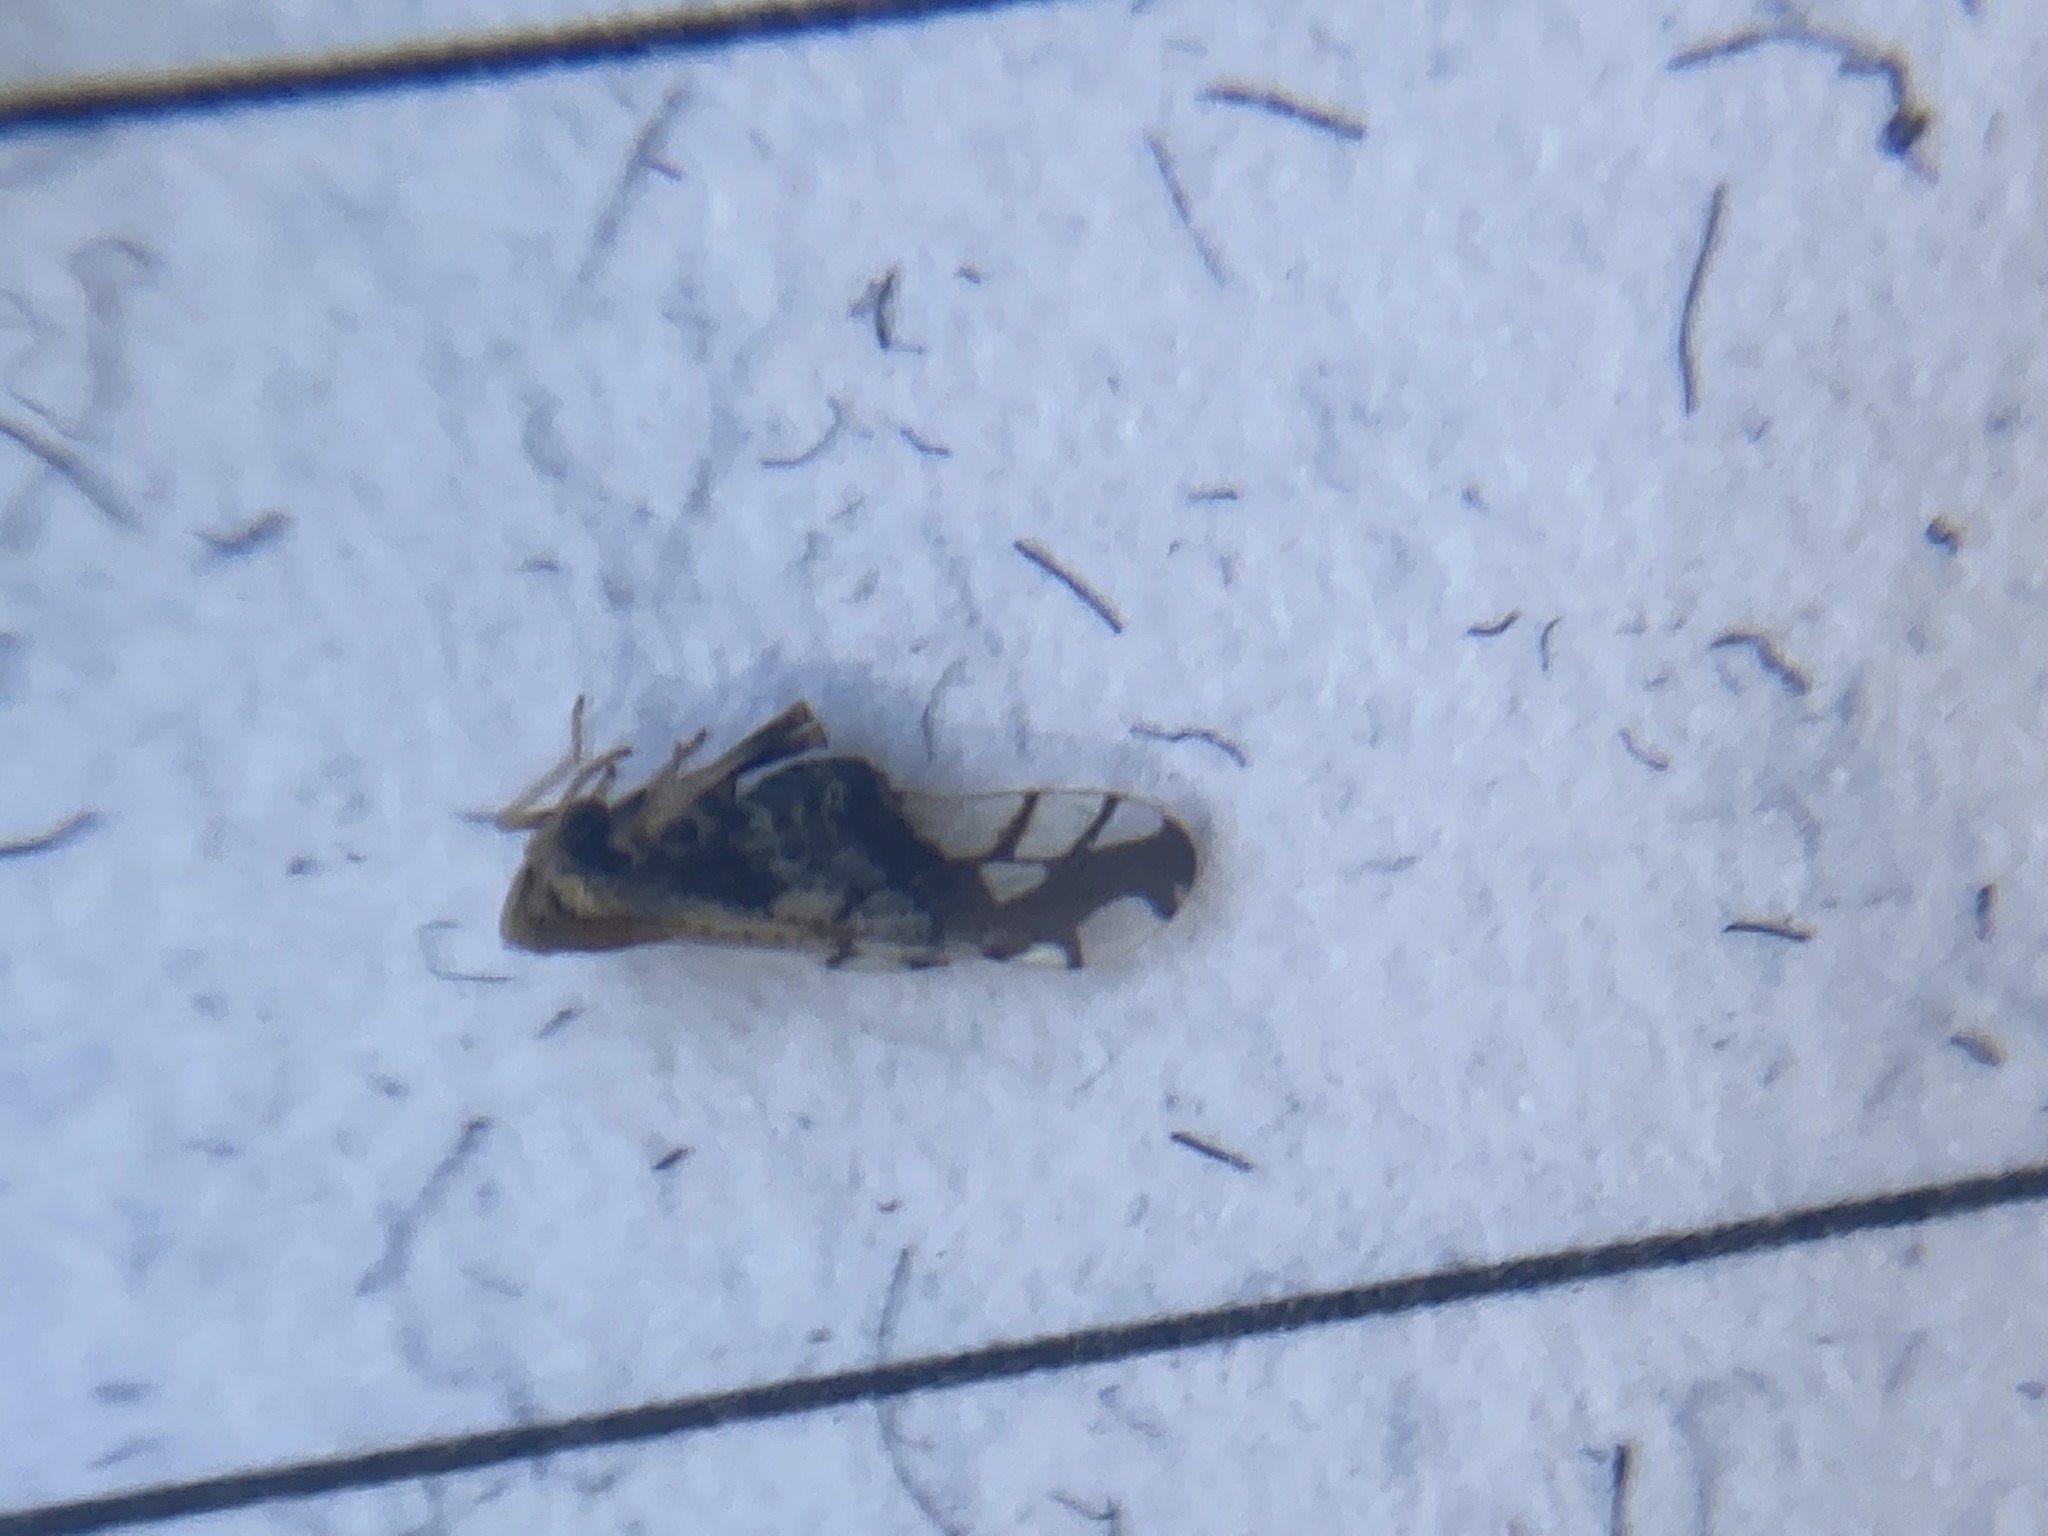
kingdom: Animalia
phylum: Arthropoda
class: Insecta
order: Hemiptera
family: Delphacidae
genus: Liburniella
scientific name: Liburniella ornata
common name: Ornate planthopper
